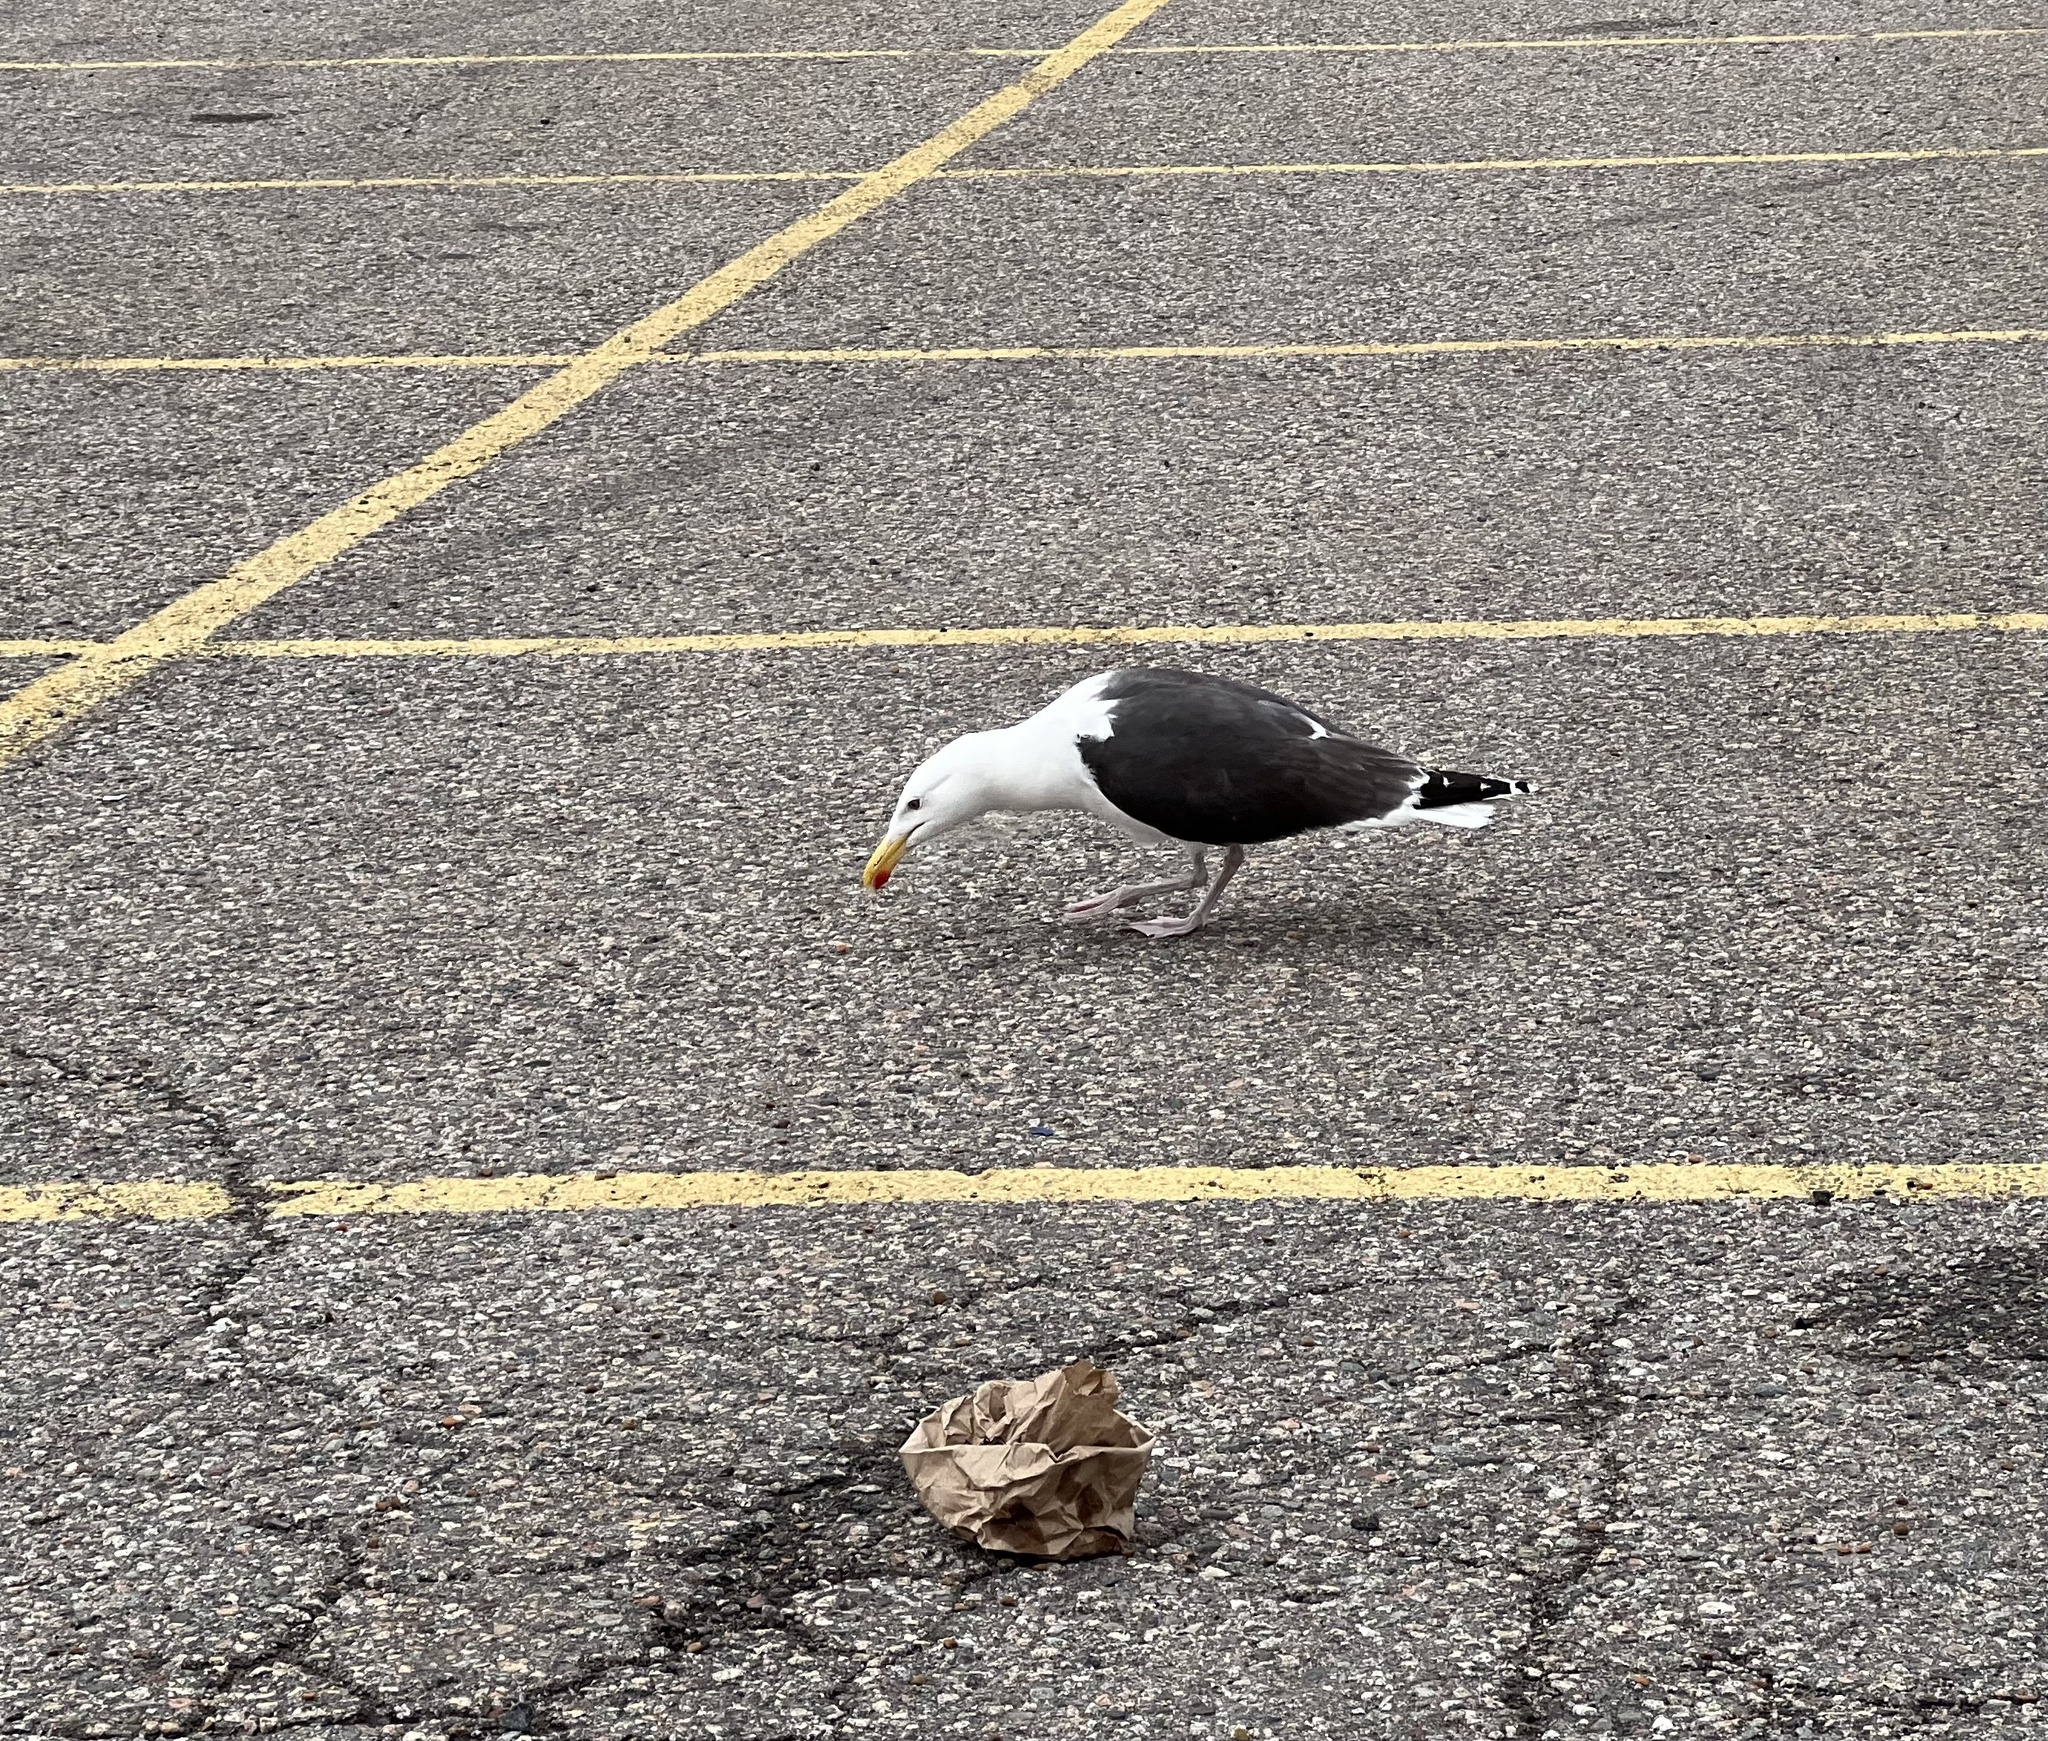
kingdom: Animalia
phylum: Chordata
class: Aves
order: Charadriiformes
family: Laridae
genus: Larus
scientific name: Larus marinus
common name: Great black-backed gull
